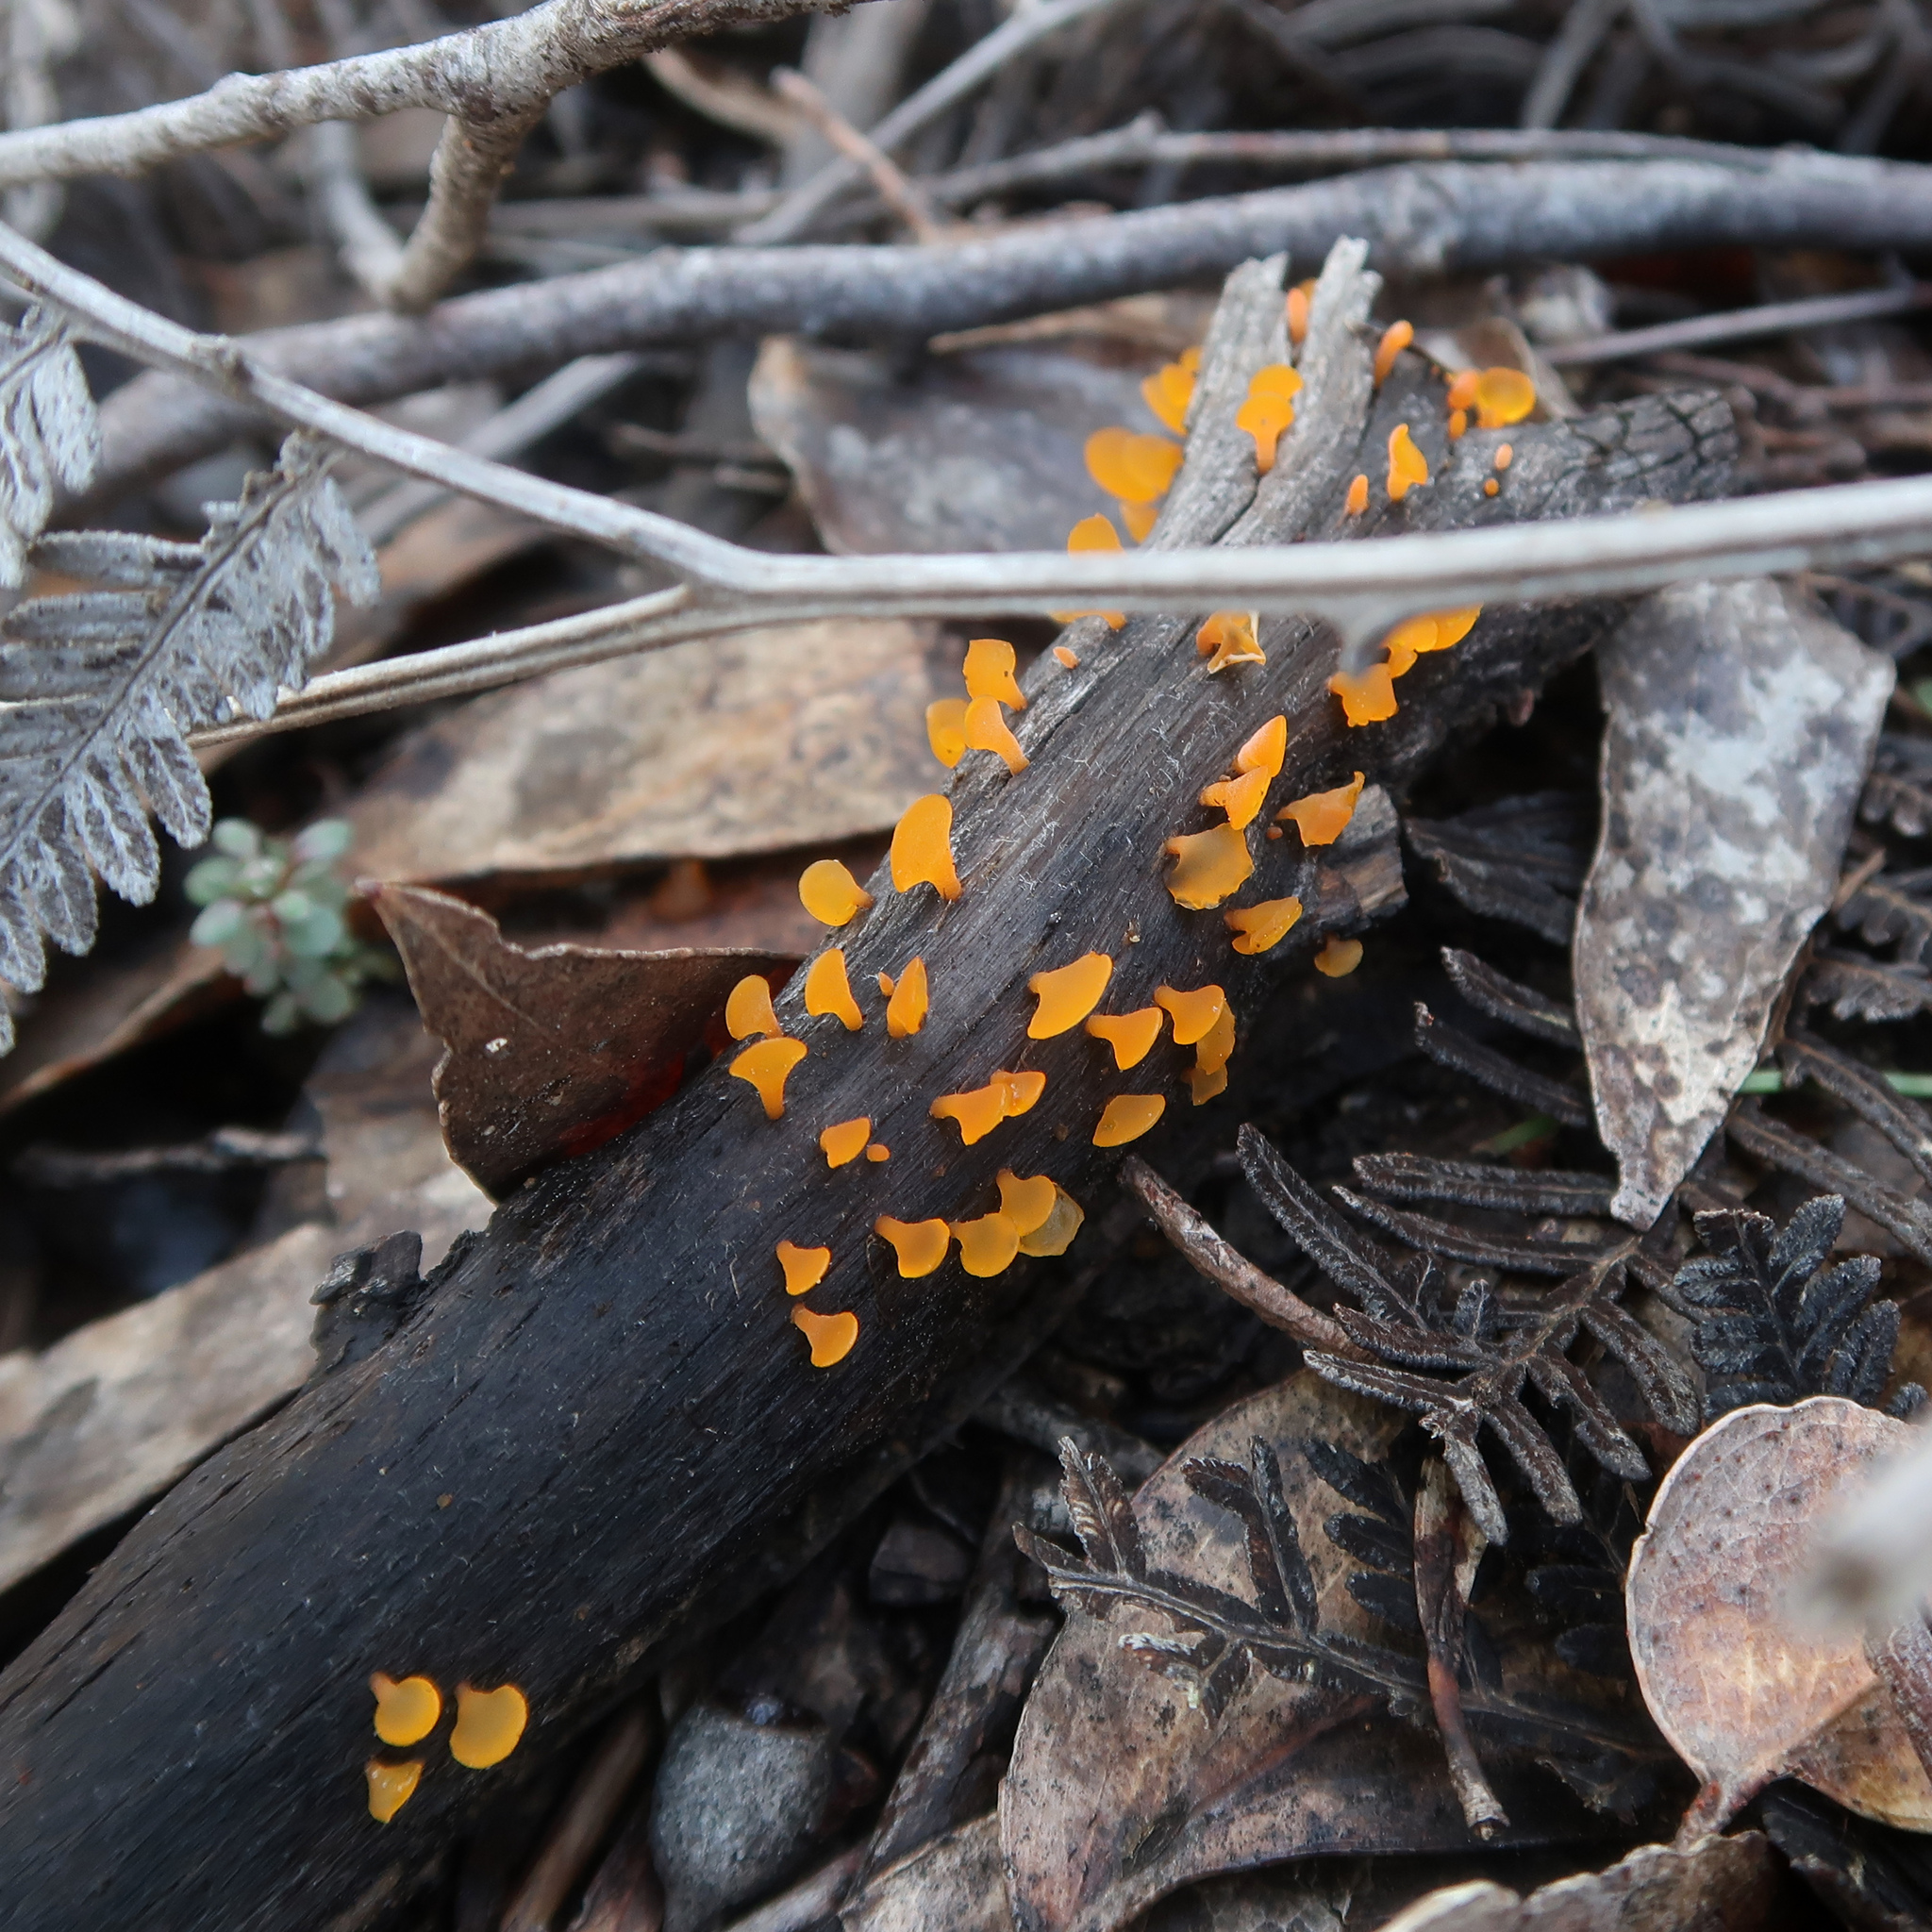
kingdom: Fungi
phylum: Basidiomycota
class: Dacrymycetes
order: Dacrymycetales
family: Dacrymycetaceae
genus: Heterotextus
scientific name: Heterotextus peziziformis
